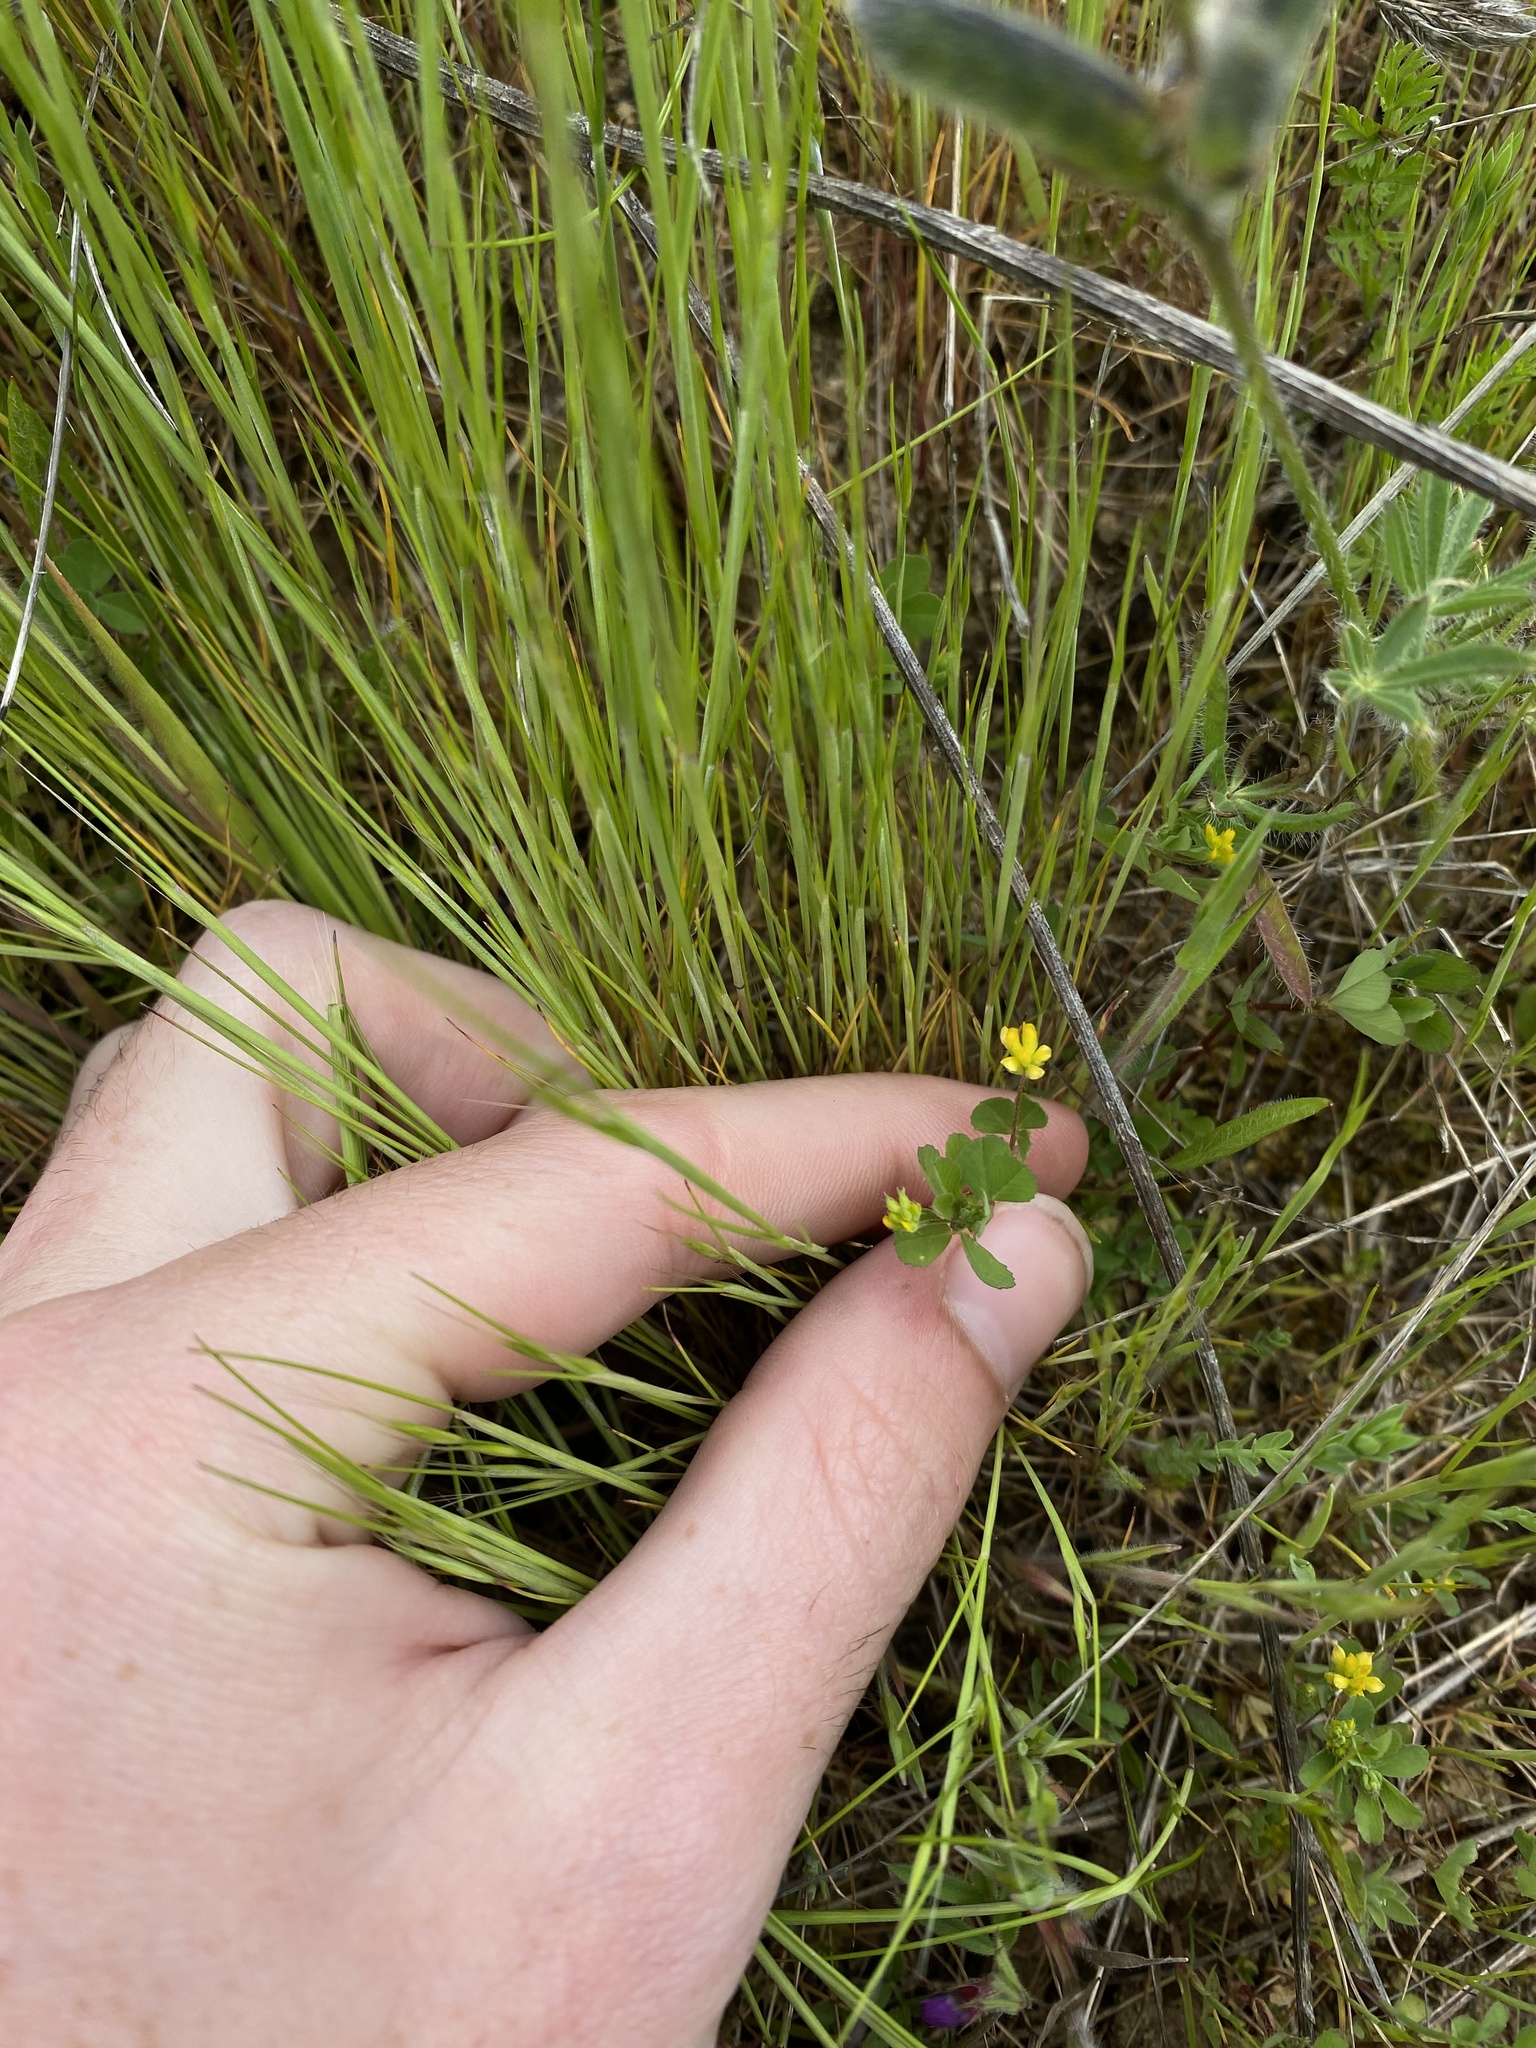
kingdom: Plantae
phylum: Tracheophyta
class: Magnoliopsida
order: Fabales
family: Fabaceae
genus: Trifolium
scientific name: Trifolium dubium
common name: Suckling clover
